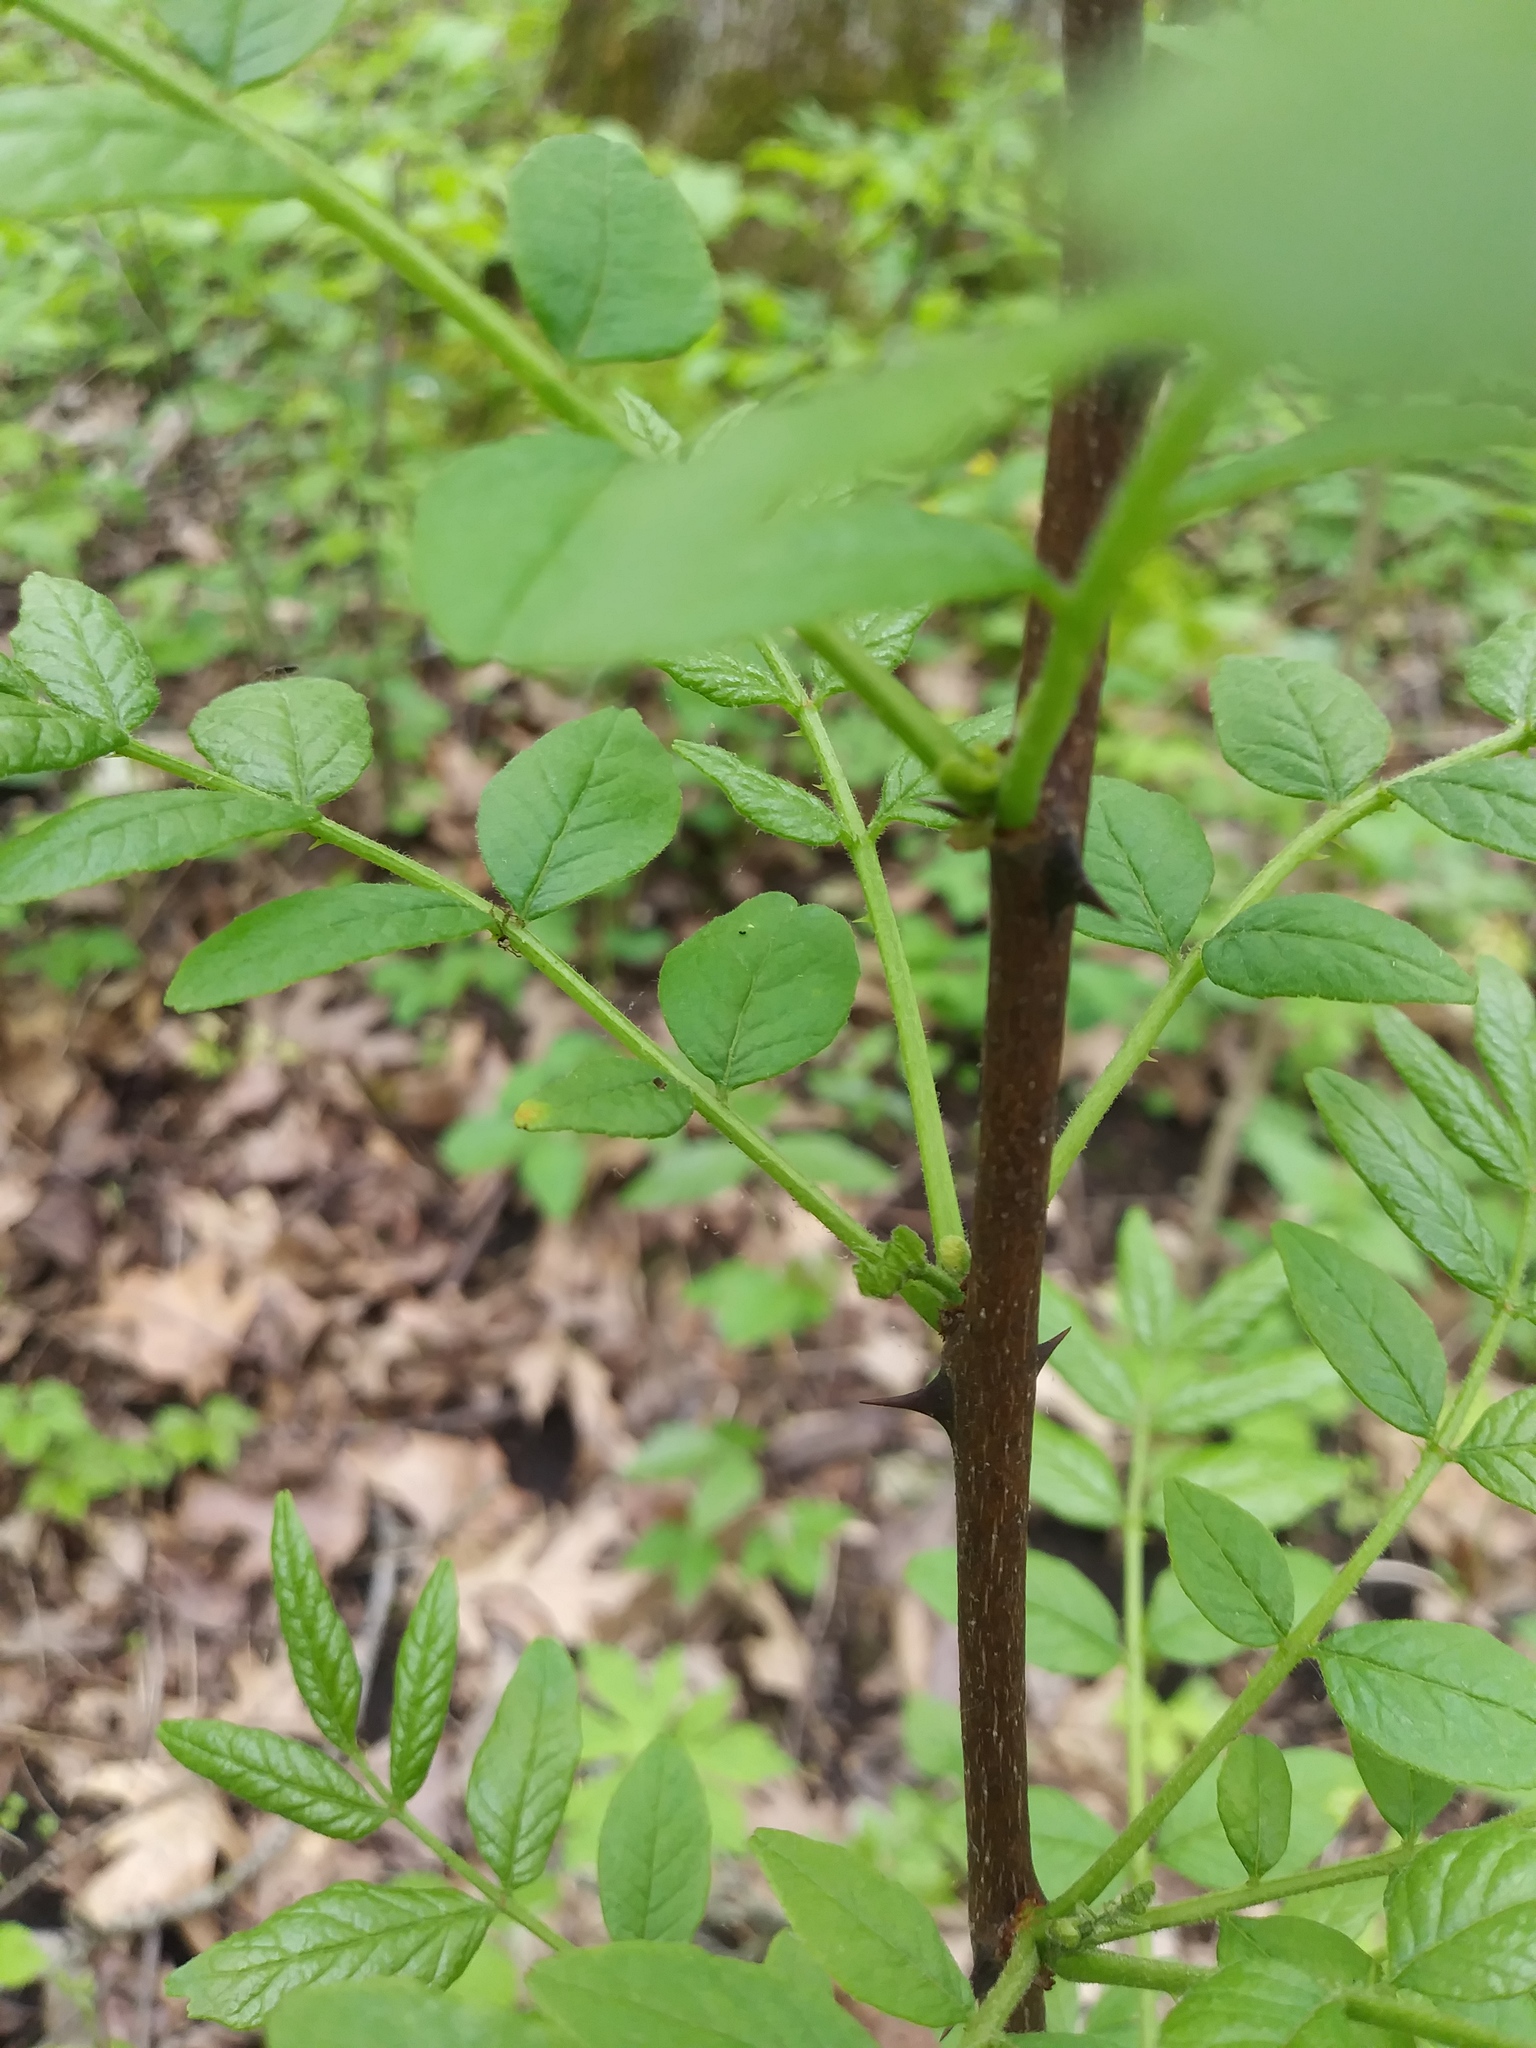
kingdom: Plantae
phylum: Tracheophyta
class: Magnoliopsida
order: Sapindales
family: Rutaceae
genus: Zanthoxylum
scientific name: Zanthoxylum americanum
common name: Northern prickly-ash
